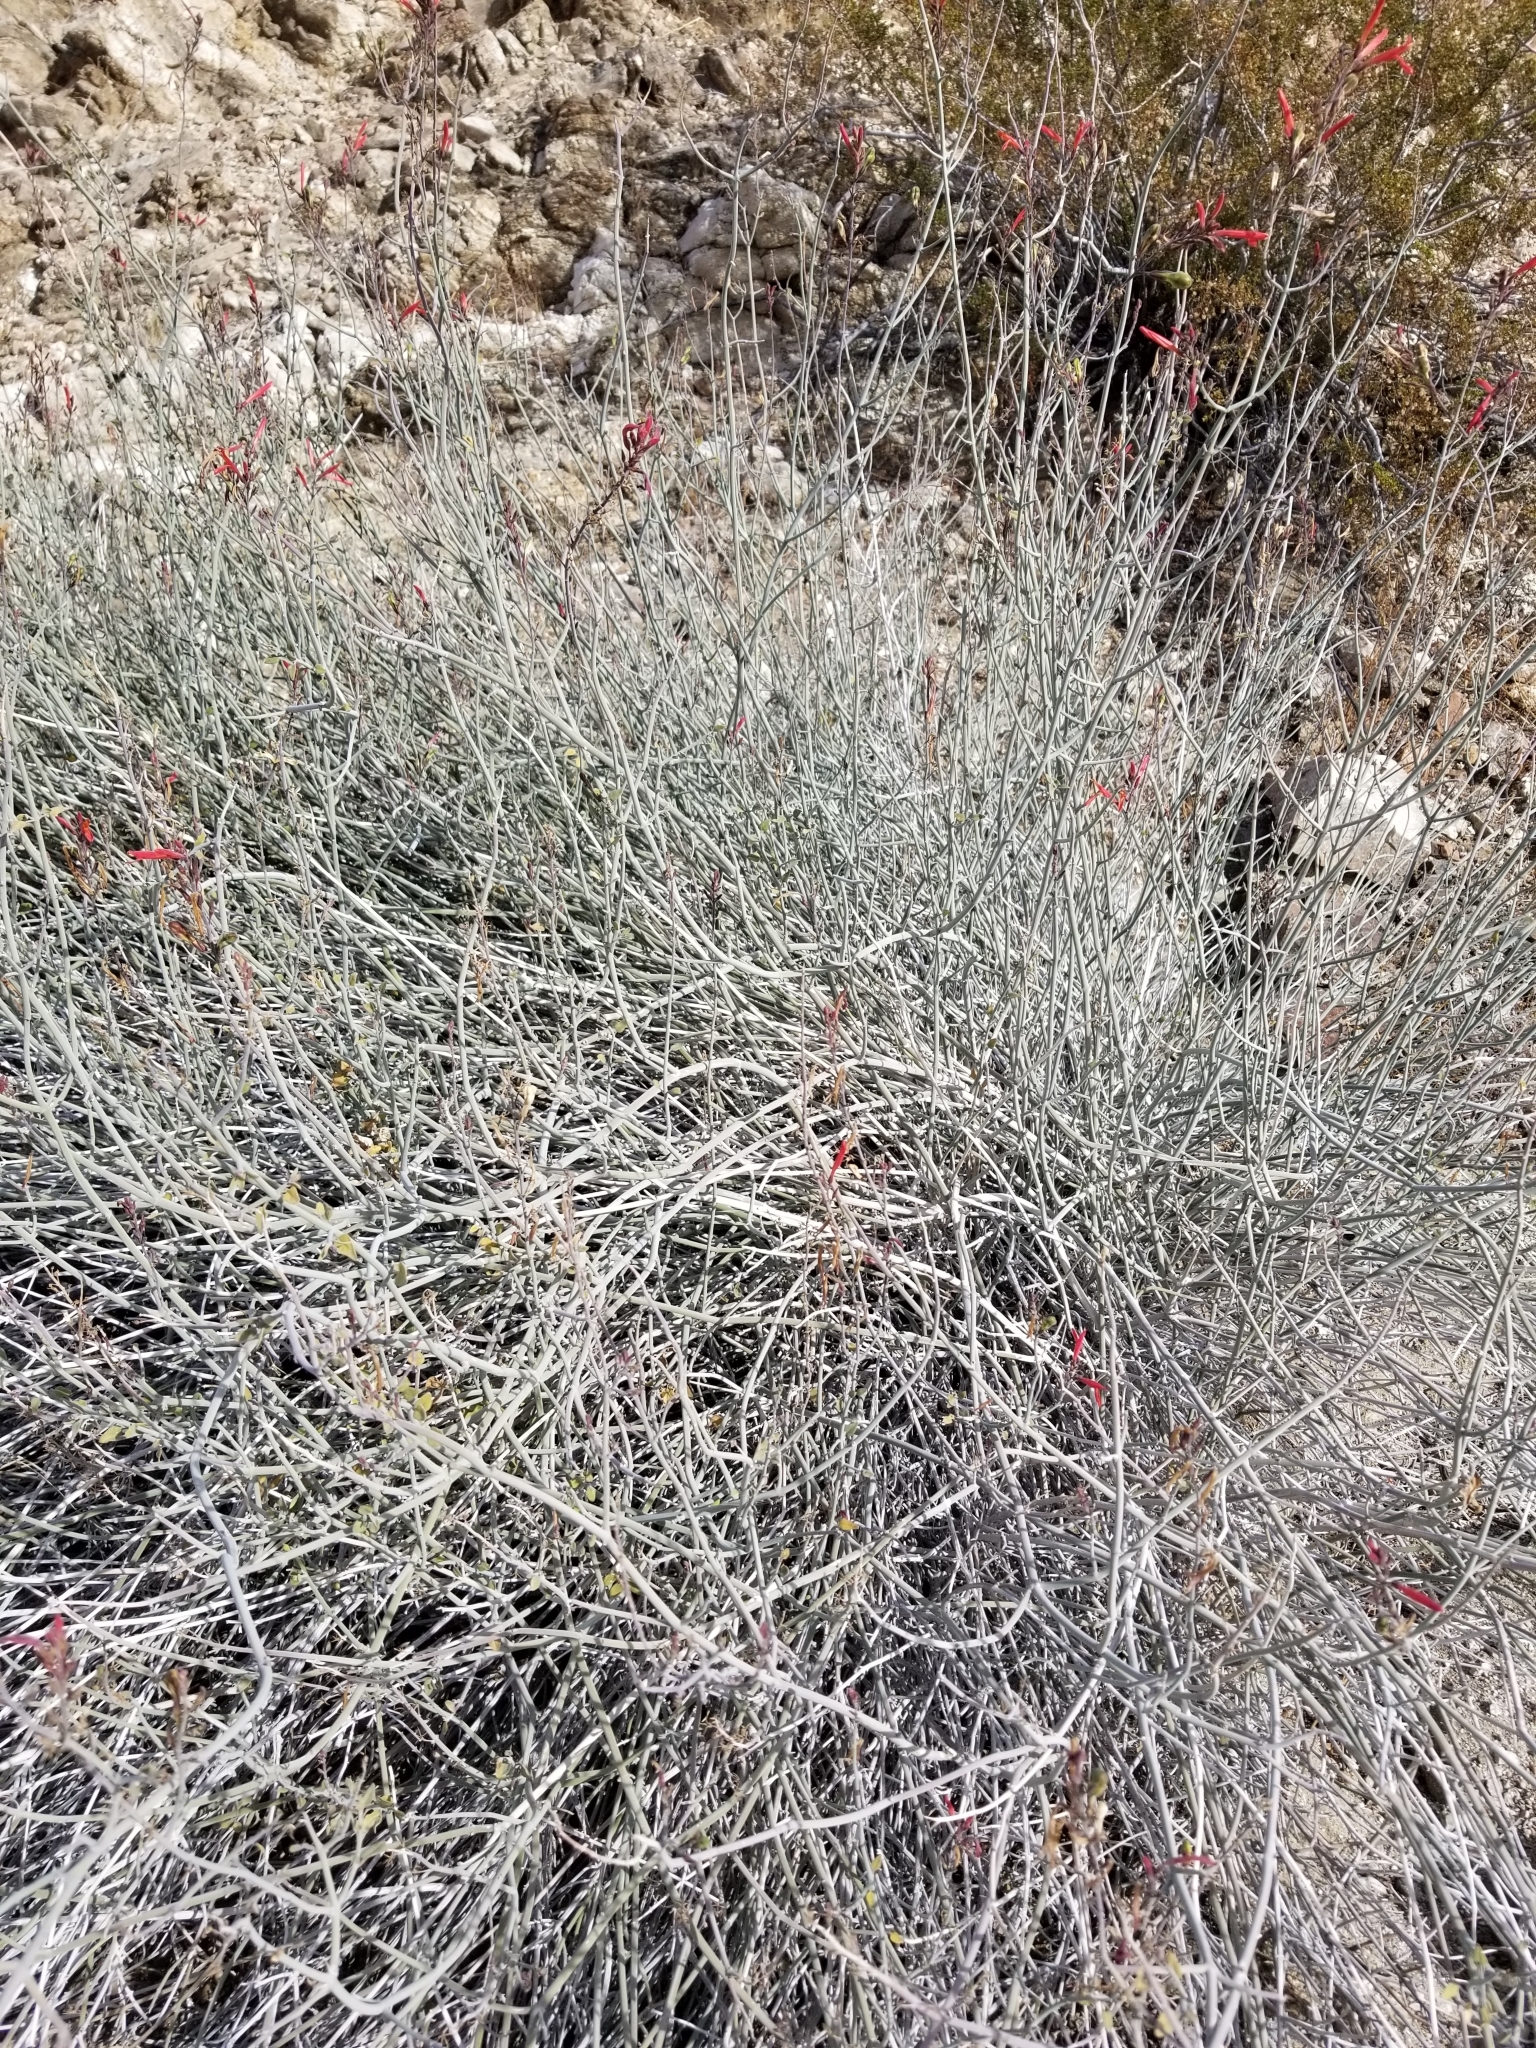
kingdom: Plantae
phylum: Tracheophyta
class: Magnoliopsida
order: Lamiales
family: Acanthaceae
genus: Justicia
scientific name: Justicia californica
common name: Chuparosa-honeysuckle
